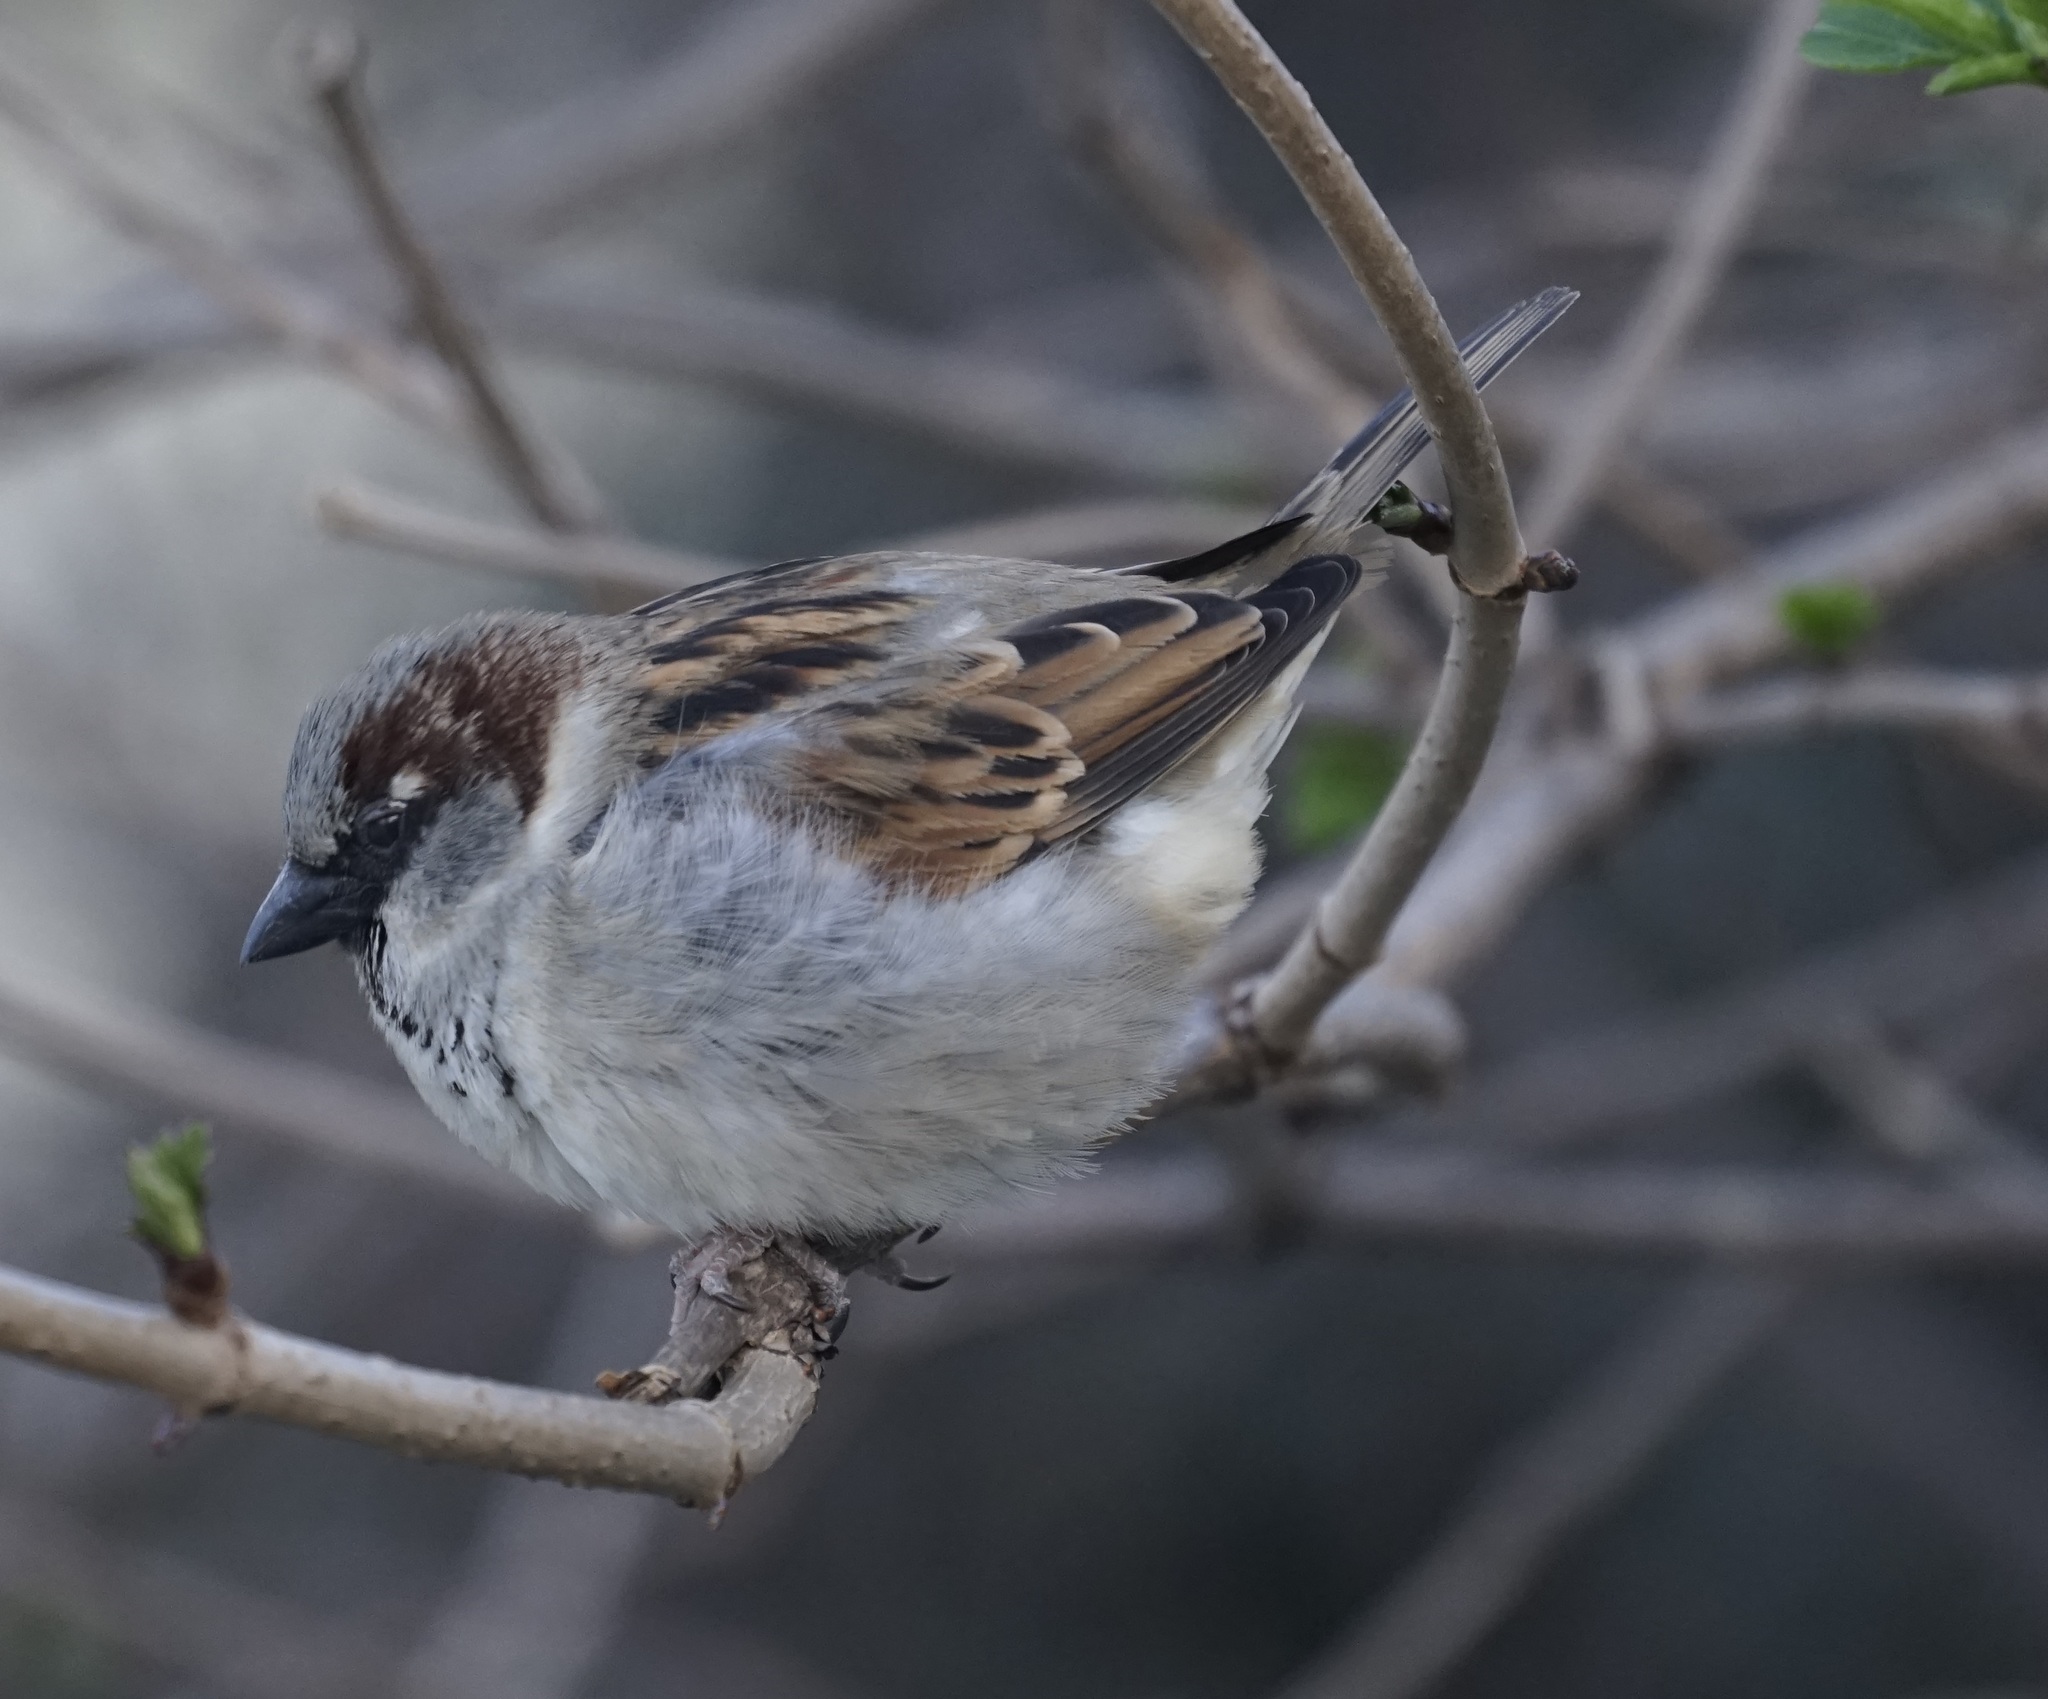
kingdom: Animalia
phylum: Chordata
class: Aves
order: Passeriformes
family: Passeridae
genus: Passer
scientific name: Passer domesticus
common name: House sparrow
